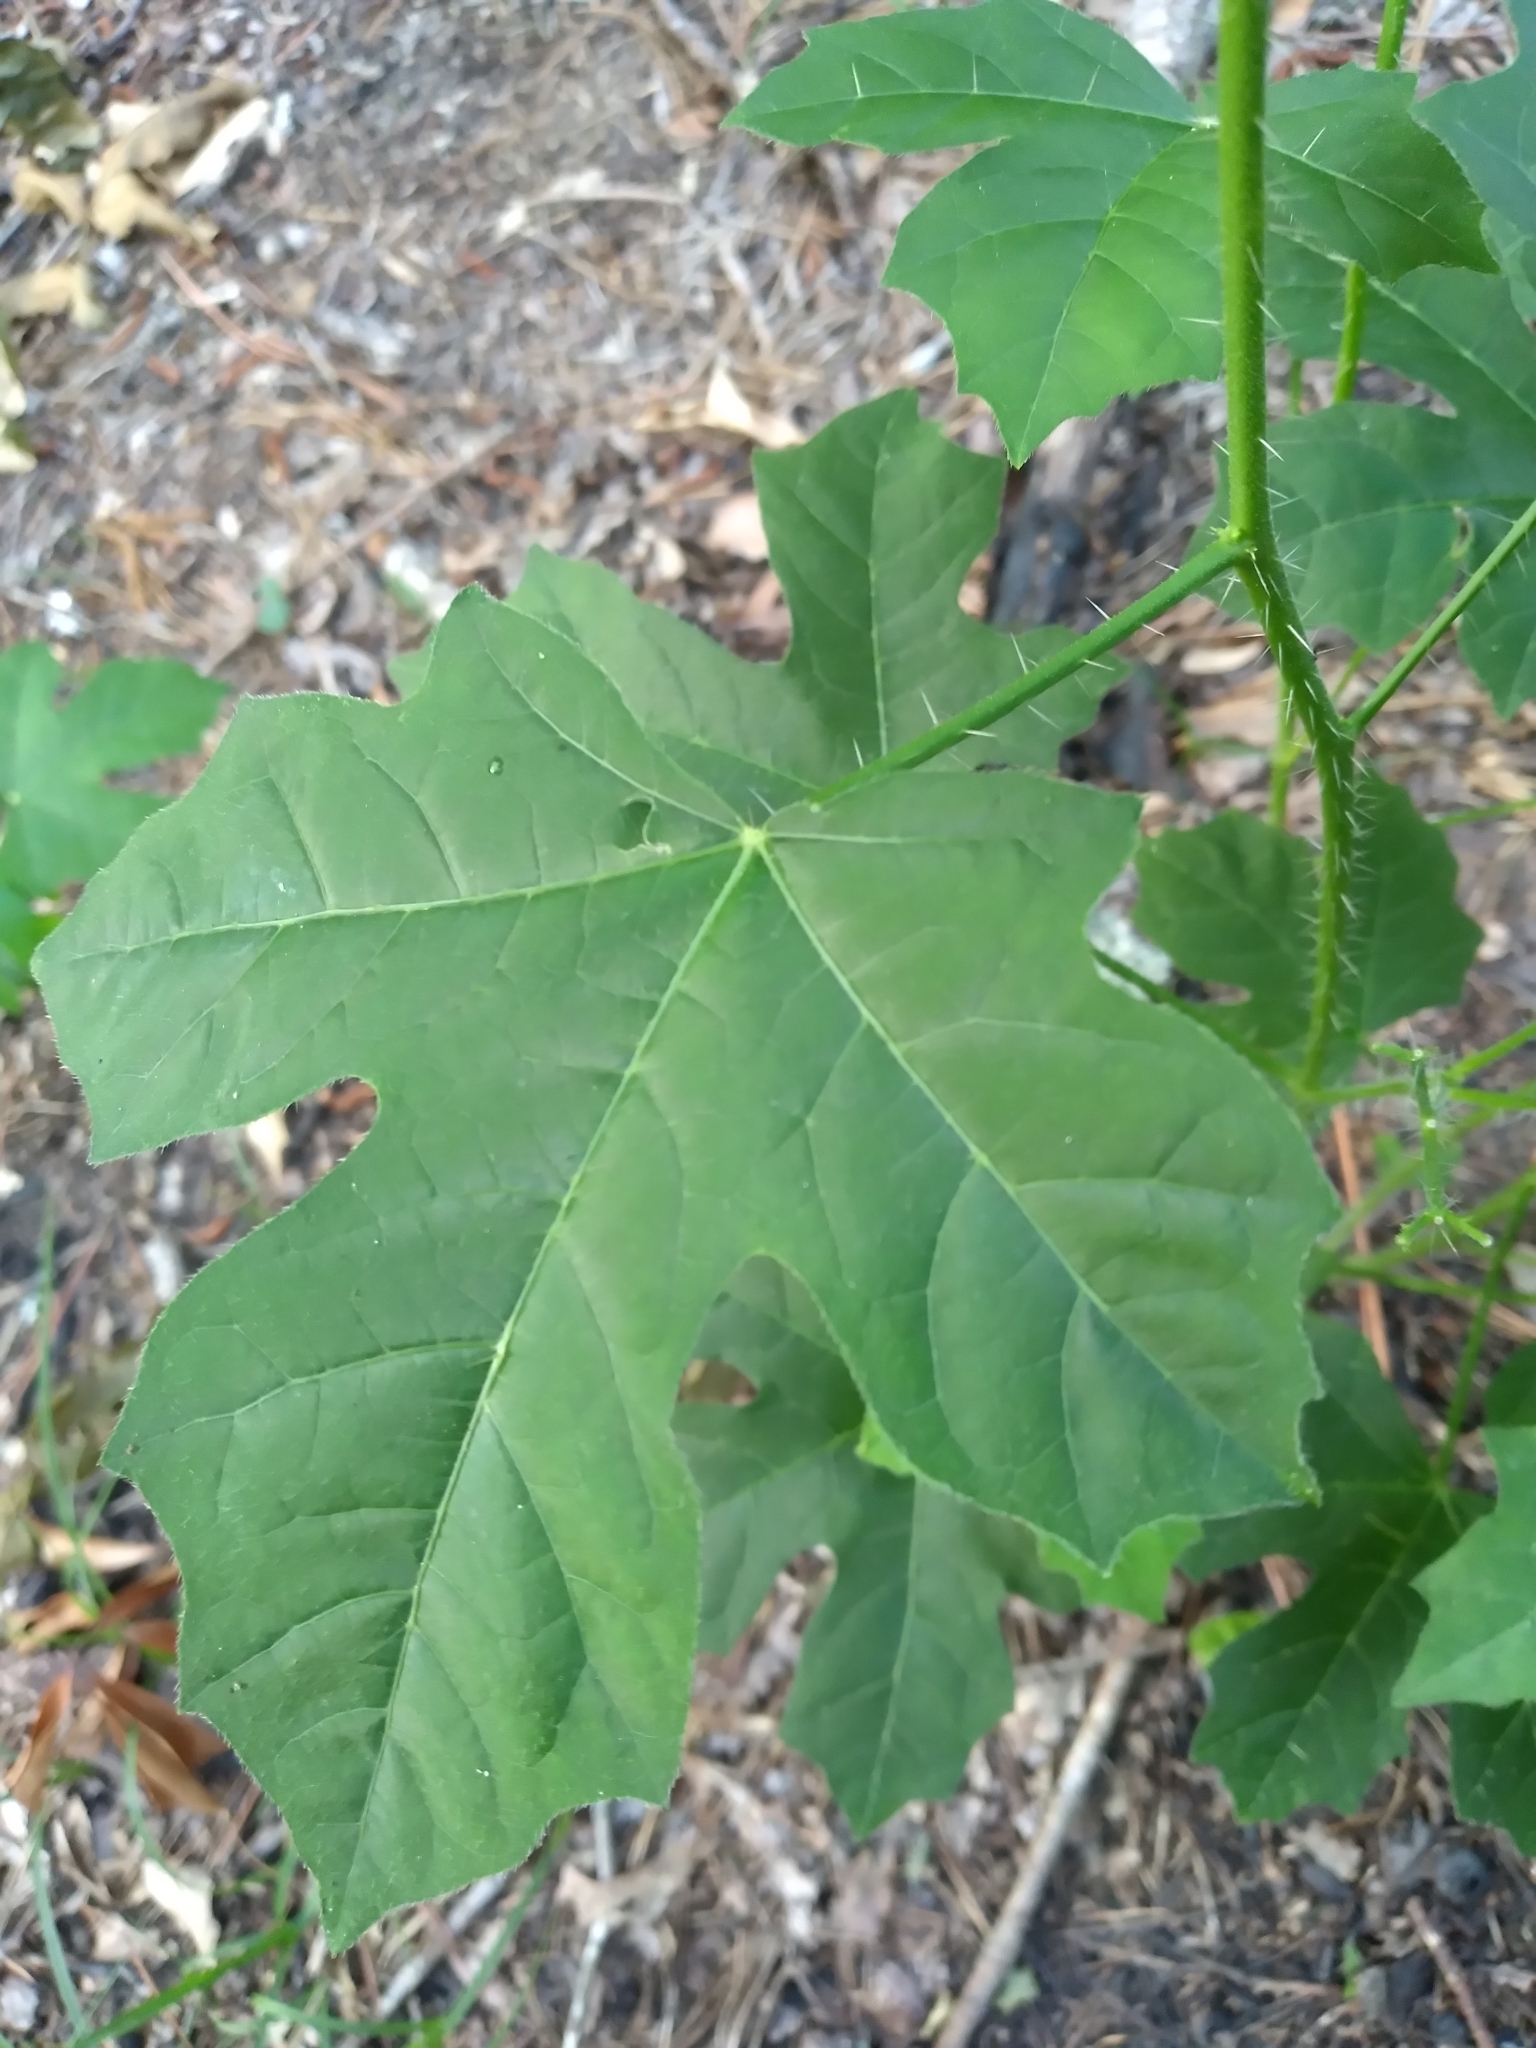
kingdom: Plantae
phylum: Tracheophyta
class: Magnoliopsida
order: Malpighiales
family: Euphorbiaceae
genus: Cnidoscolus
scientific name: Cnidoscolus stimulosus
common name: Bull-nettle
